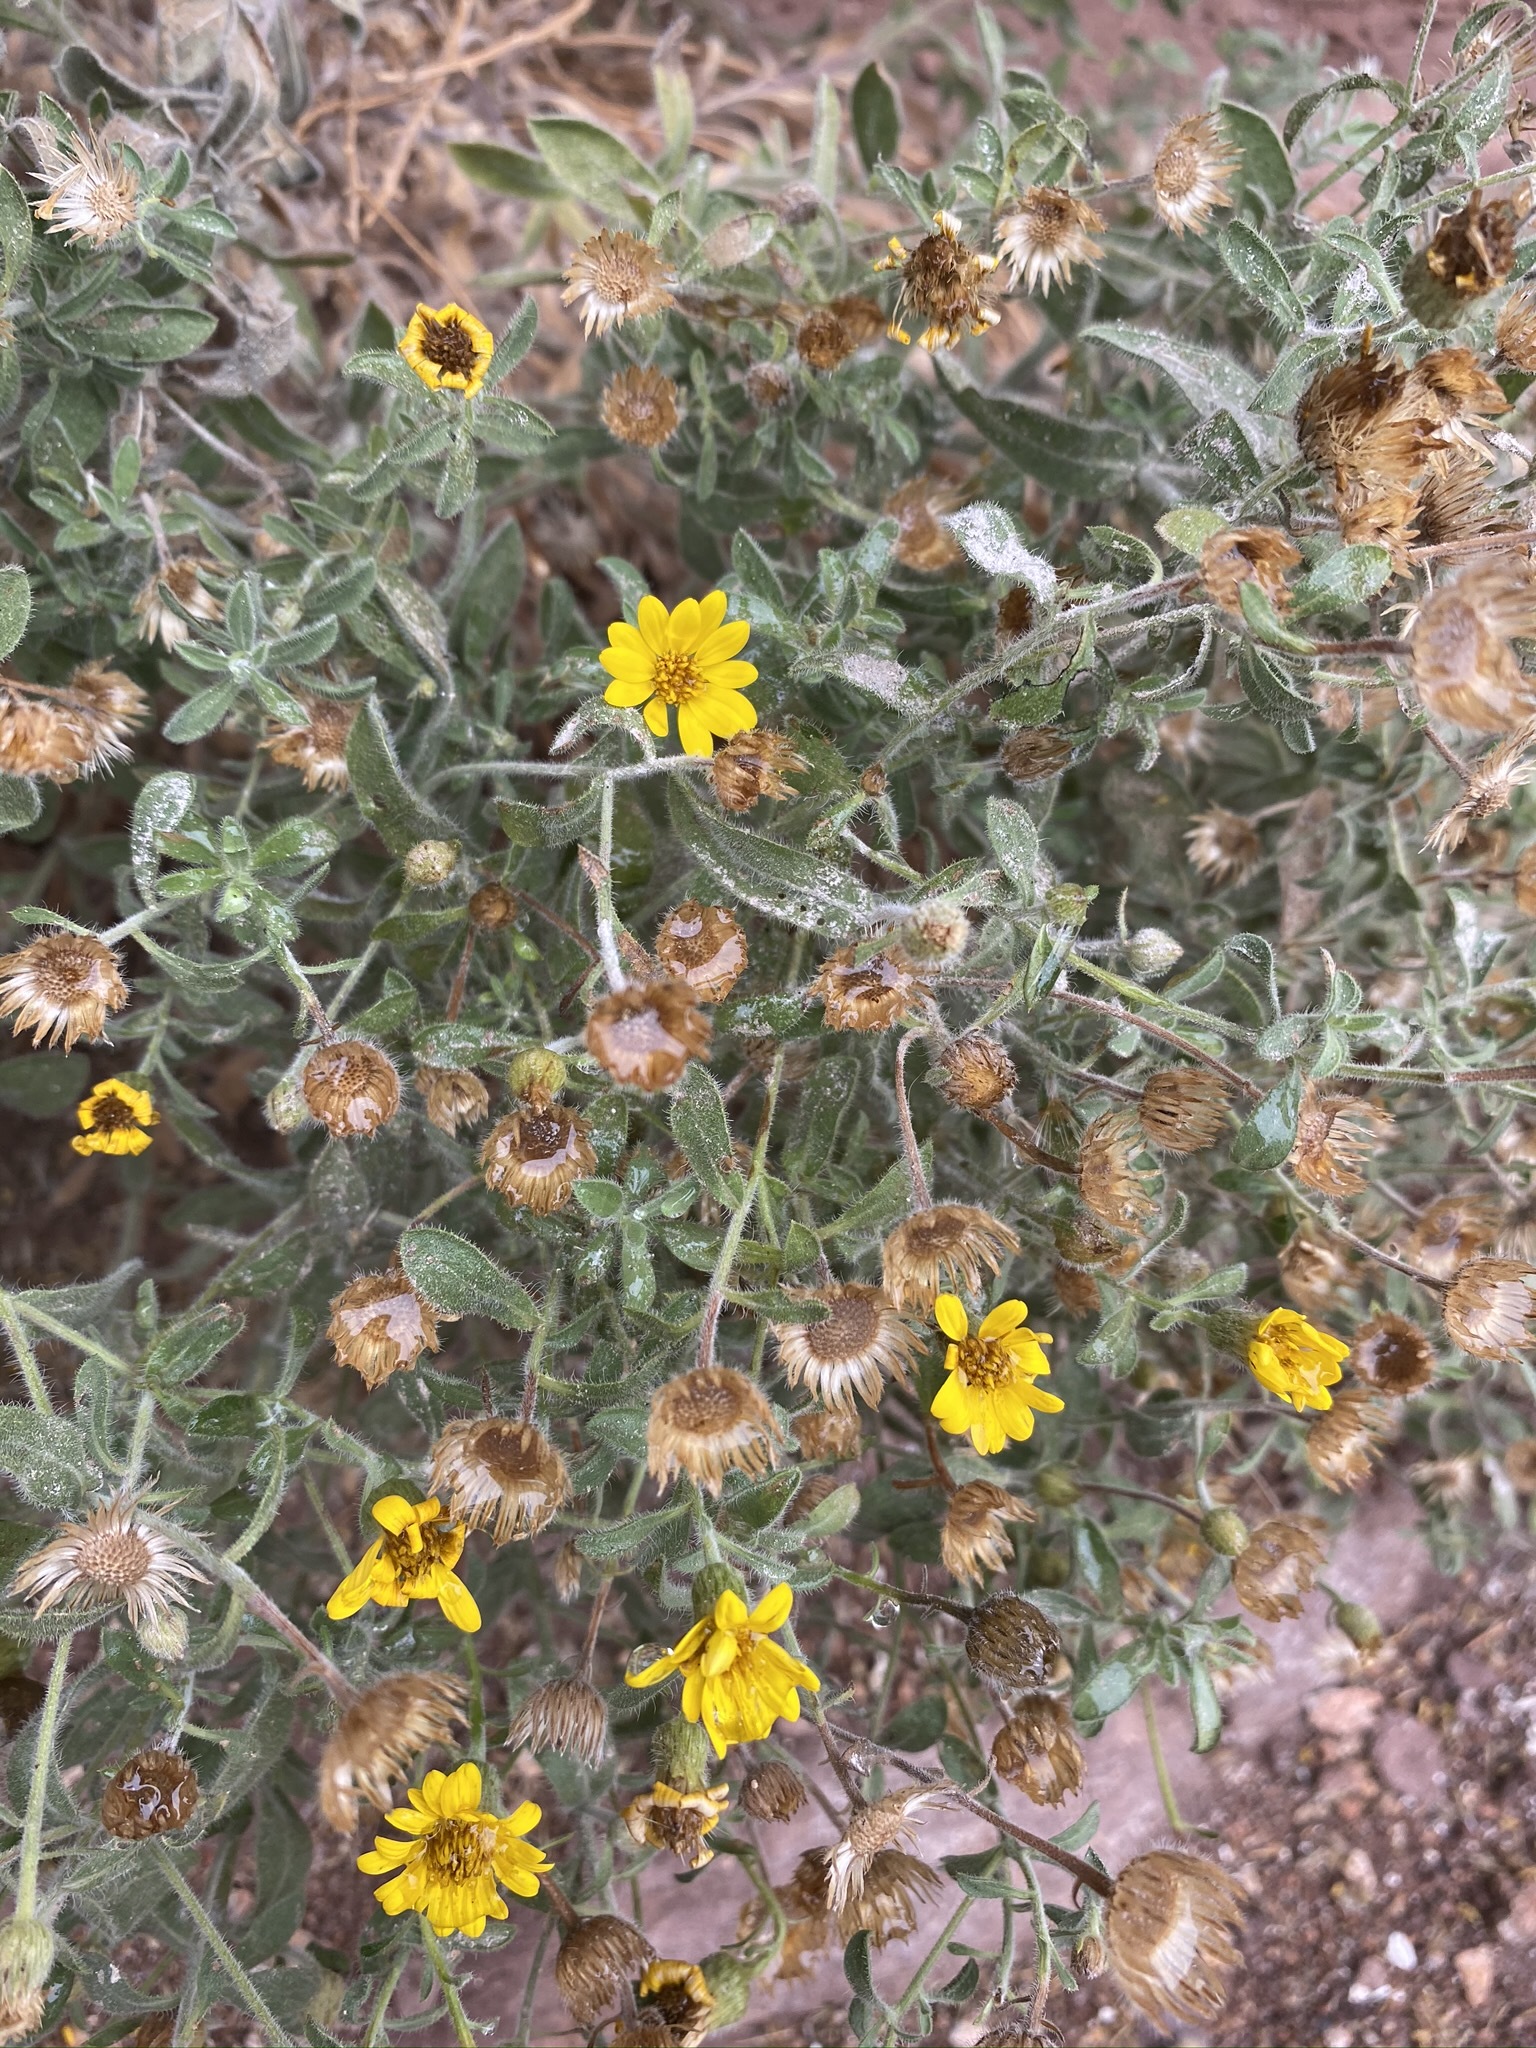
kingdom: Plantae
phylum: Tracheophyta
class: Magnoliopsida
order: Asterales
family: Asteraceae
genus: Heterotheca
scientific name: Heterotheca villosa
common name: Hairy false goldenaster
